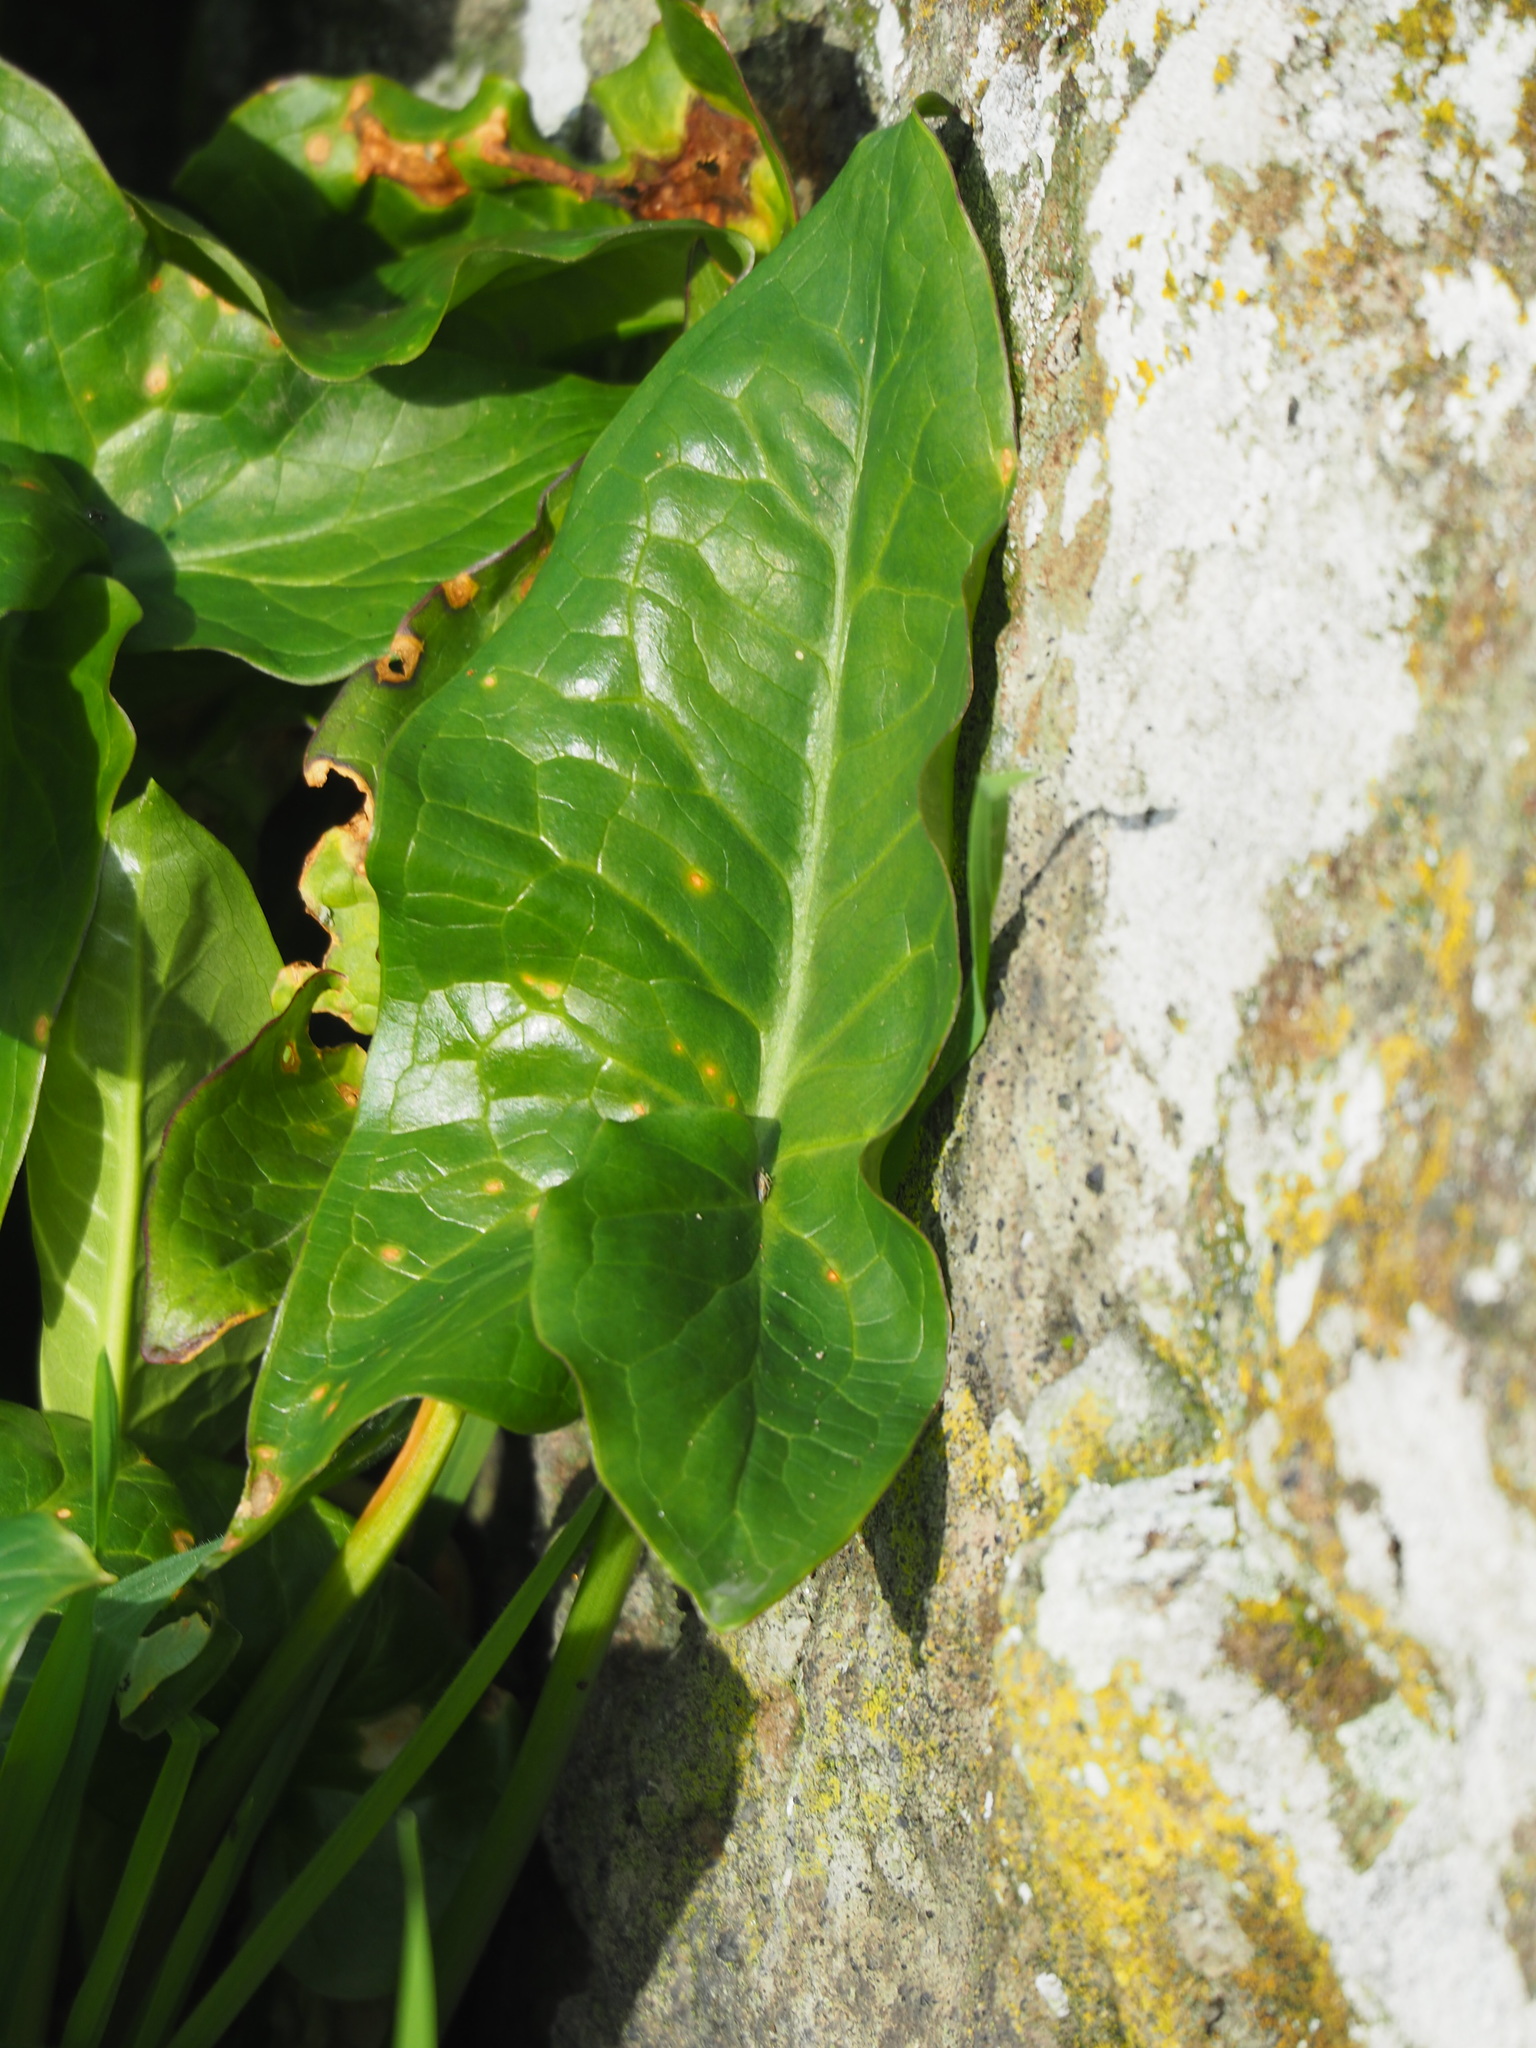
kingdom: Plantae
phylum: Tracheophyta
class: Liliopsida
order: Alismatales
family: Araceae
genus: Arum
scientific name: Arum italicum
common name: Italian lords-and-ladies
